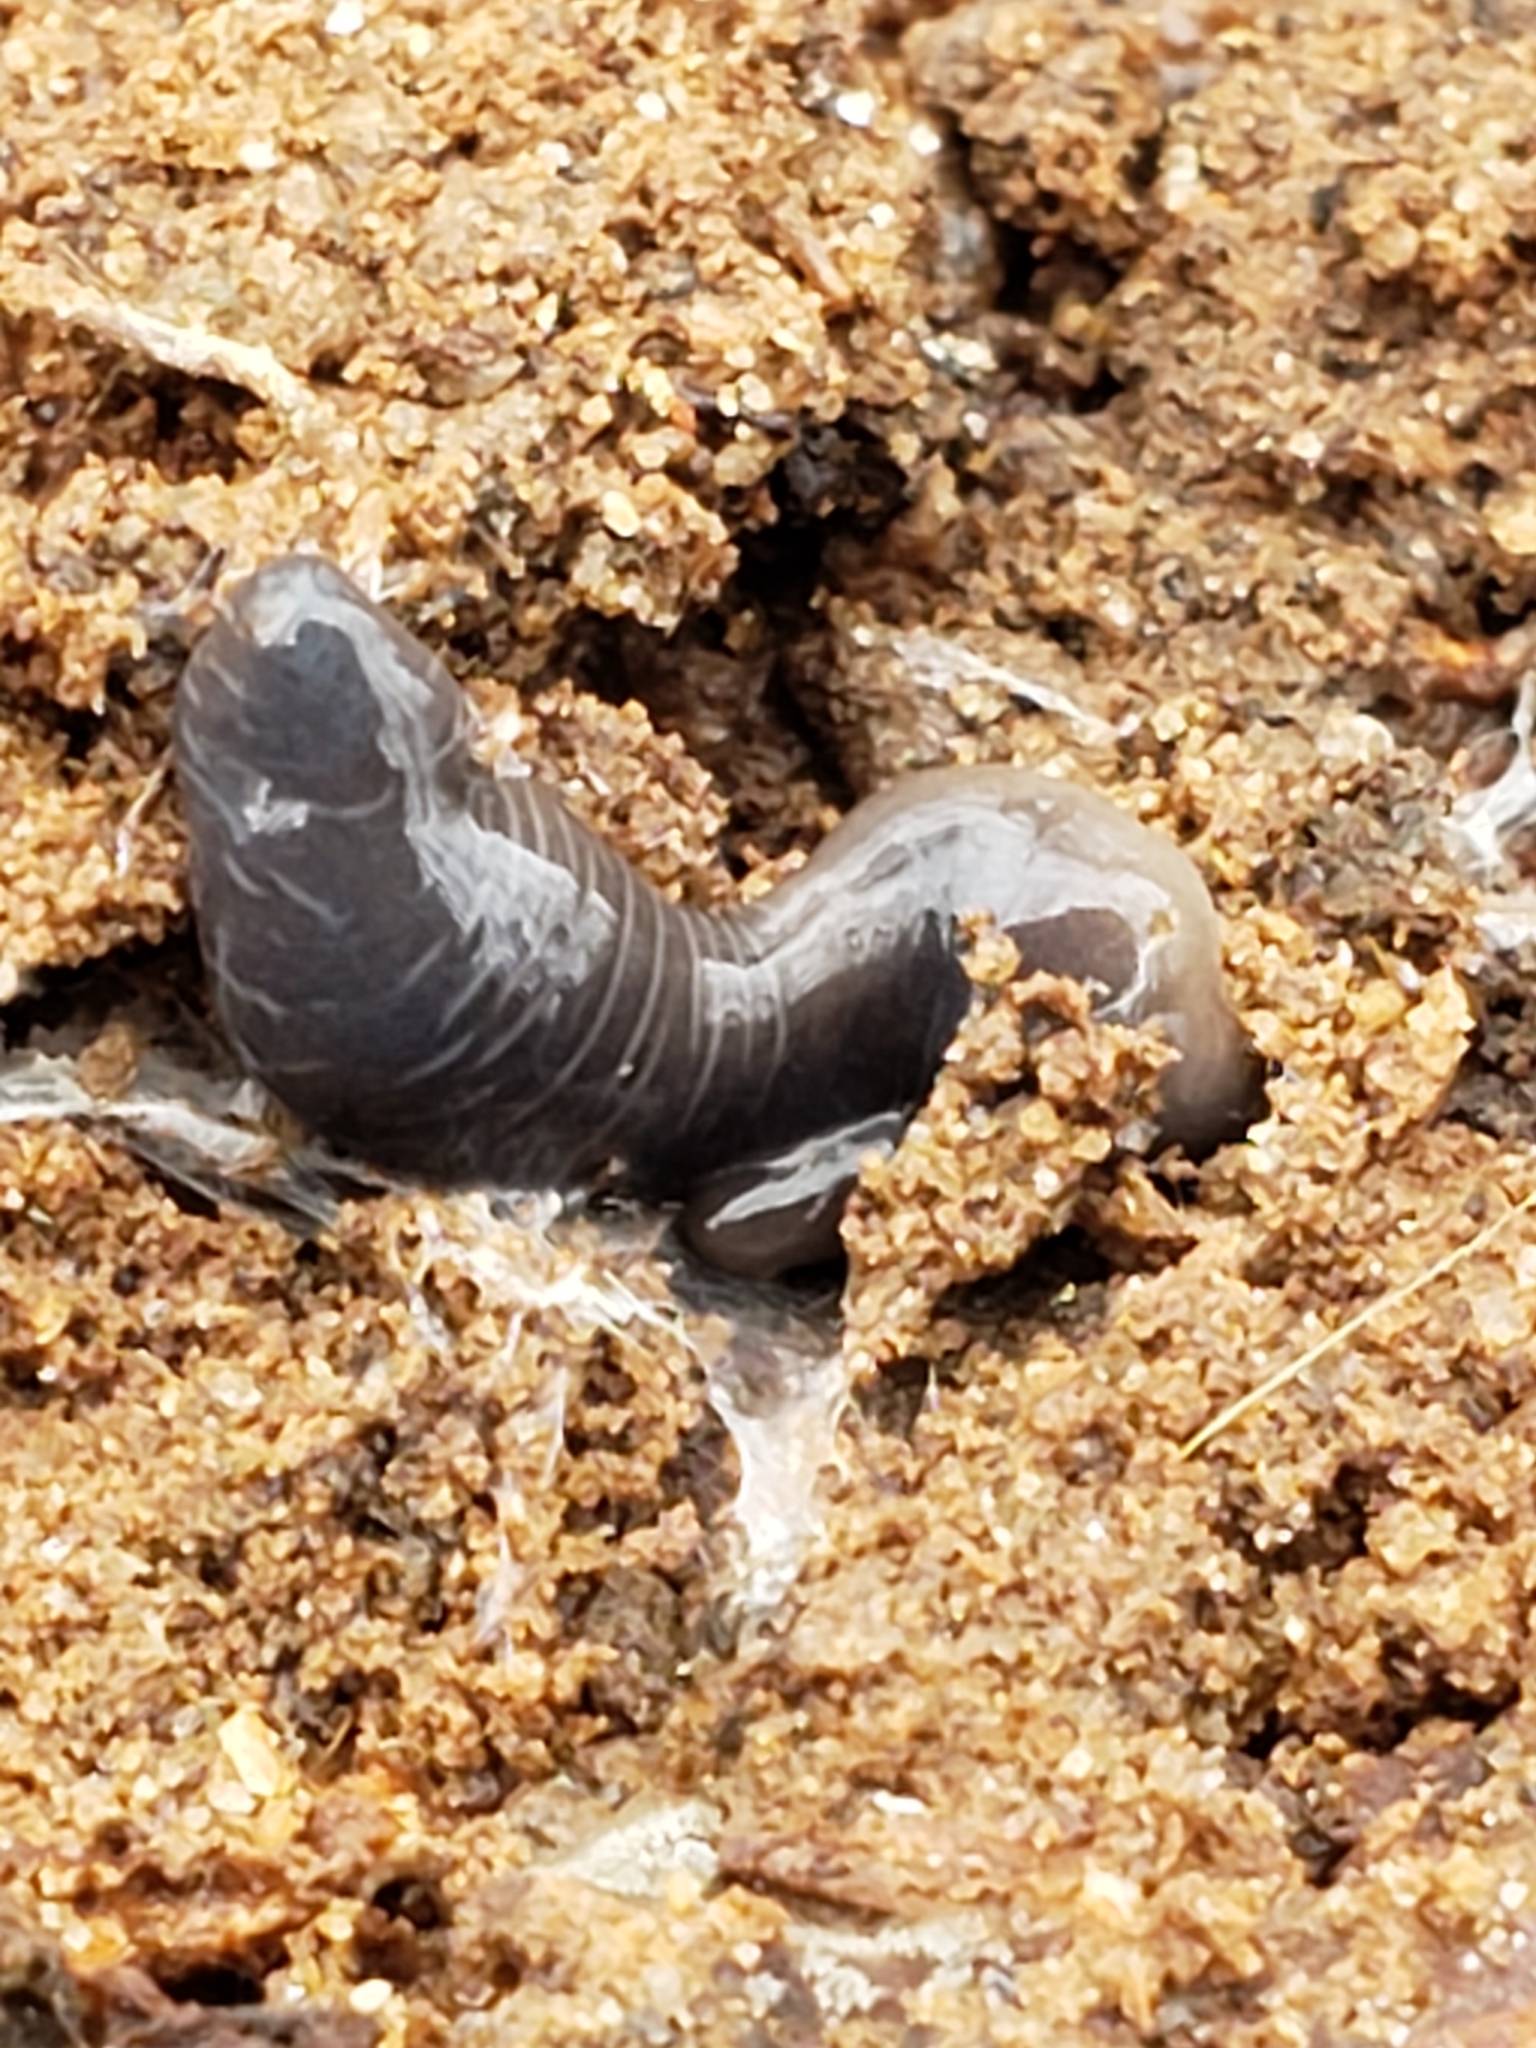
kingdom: Animalia
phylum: Platyhelminthes
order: Tricladida
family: Geoplanidae
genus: Microplana
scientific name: Microplana terrestris
